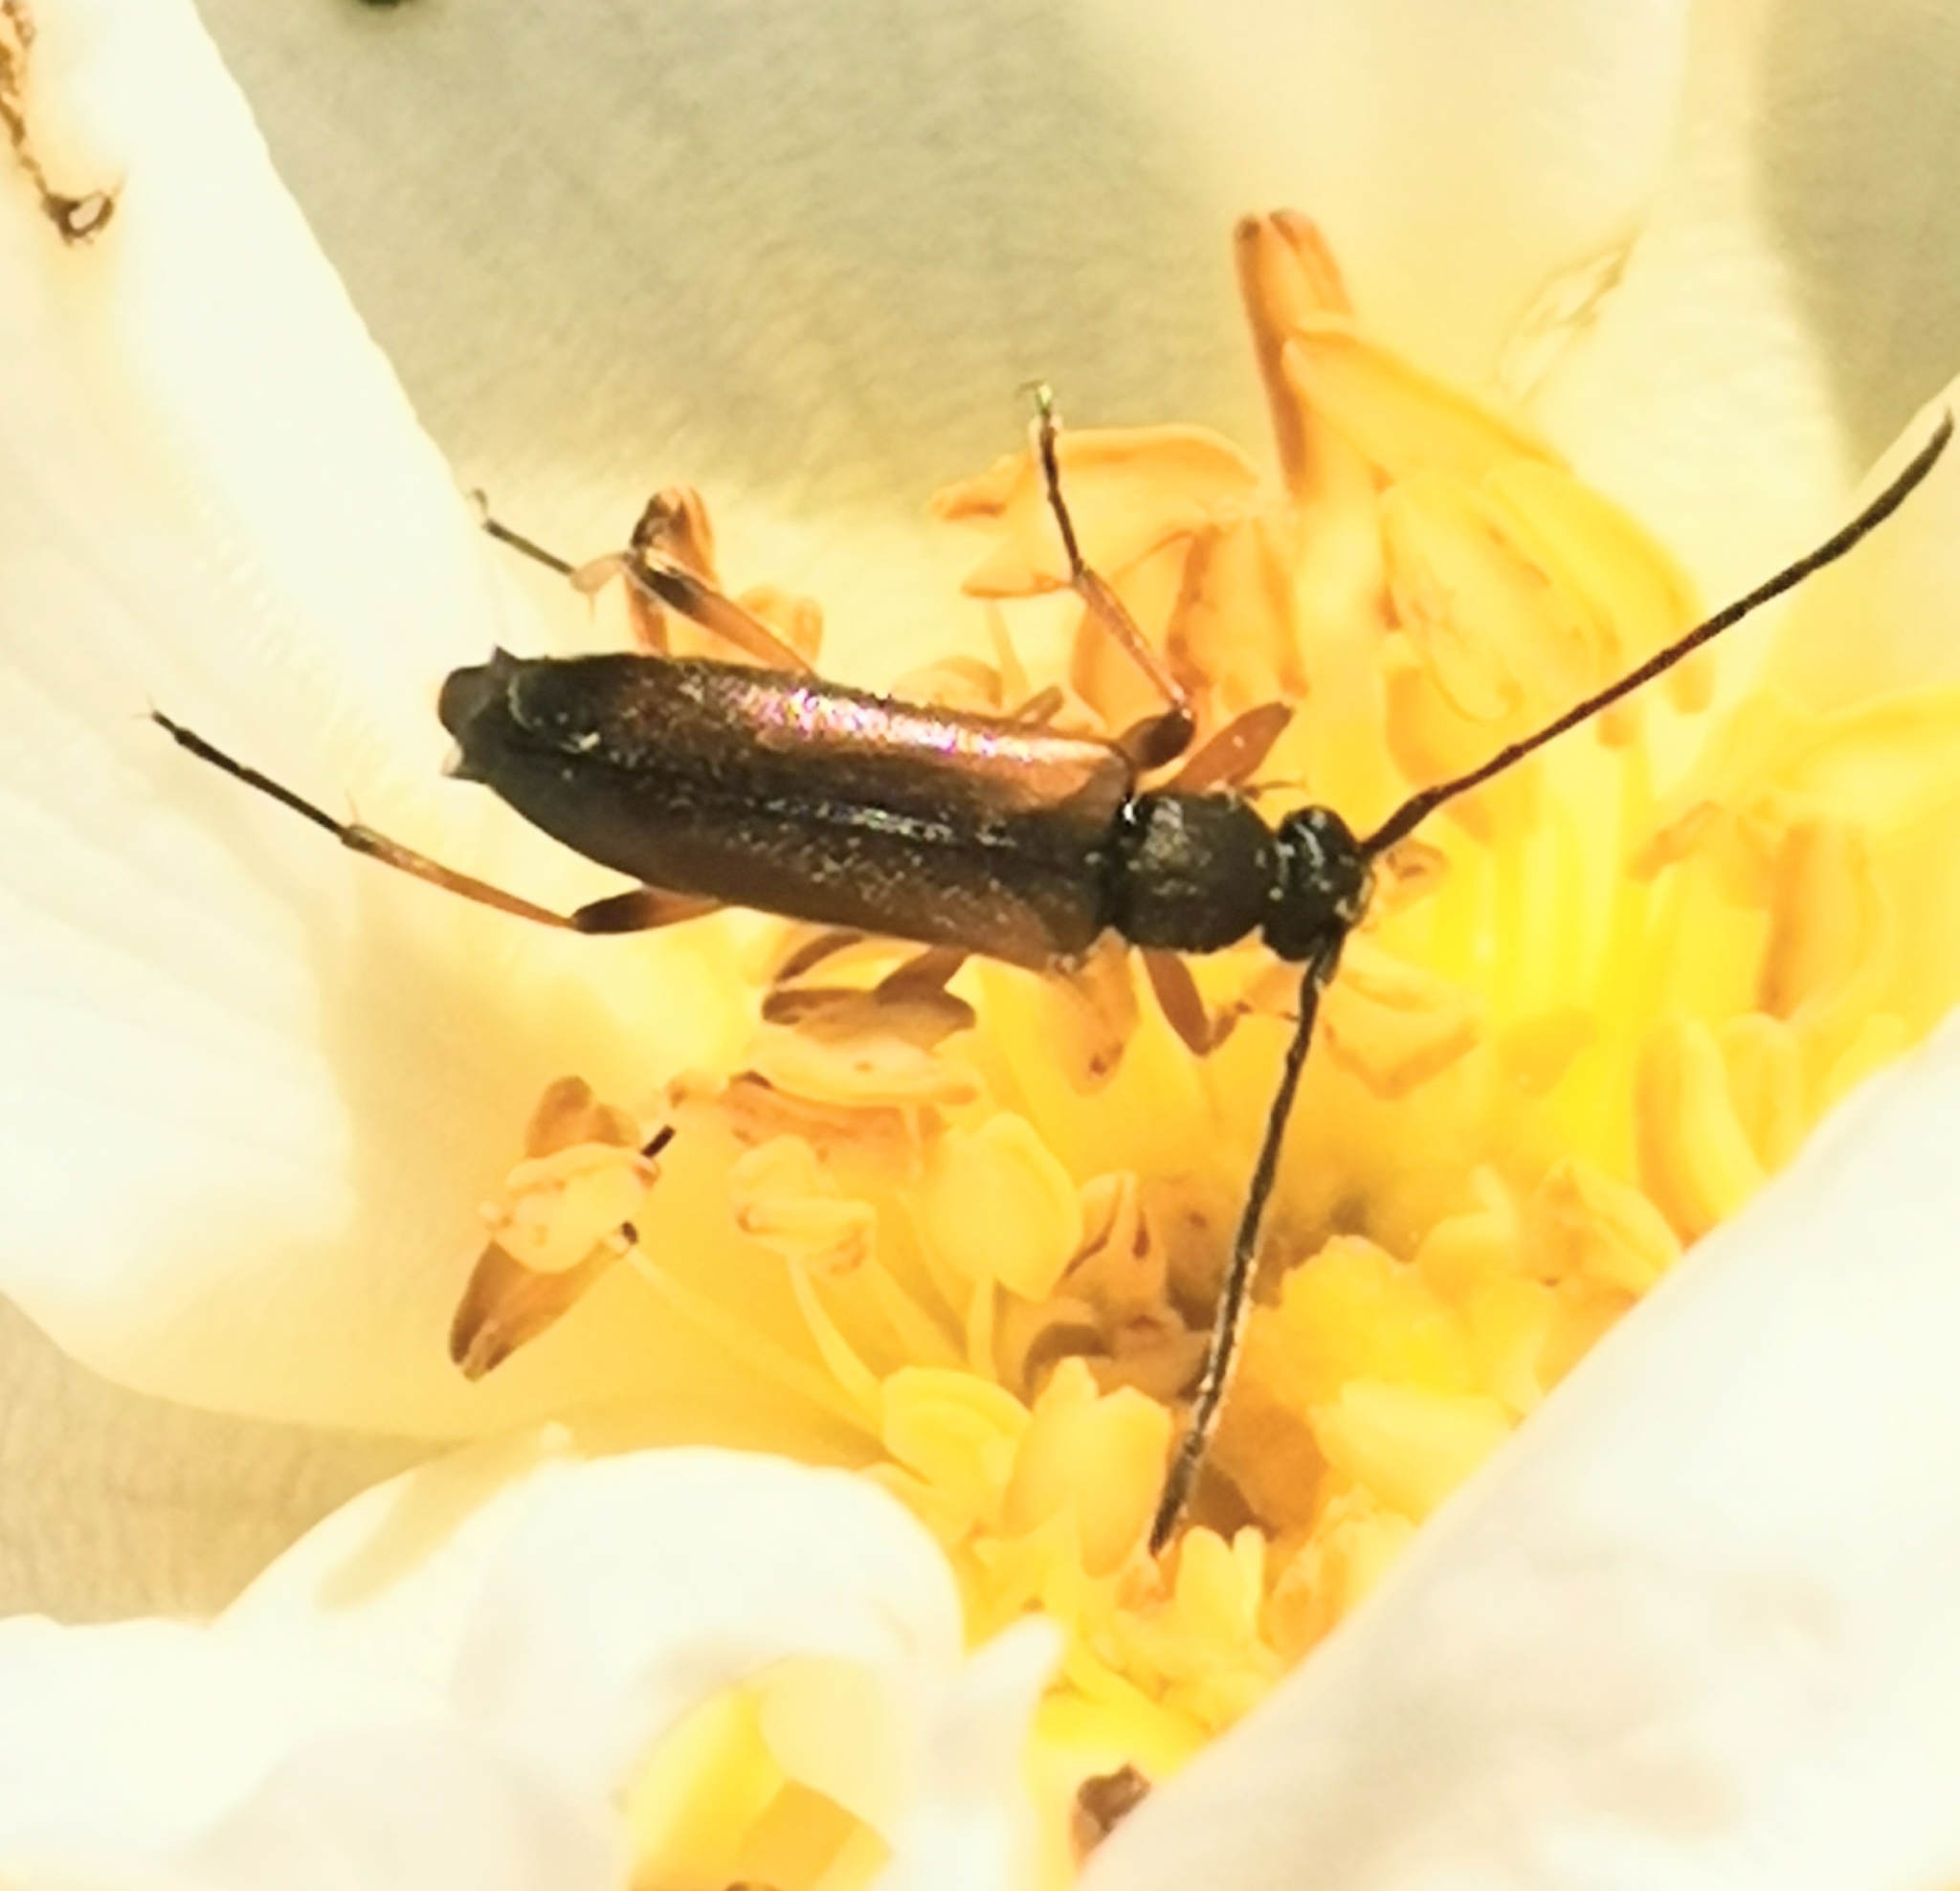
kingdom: Animalia
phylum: Arthropoda
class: Insecta
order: Coleoptera
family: Cerambycidae
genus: Alosterna
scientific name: Alosterna tabacicolor
